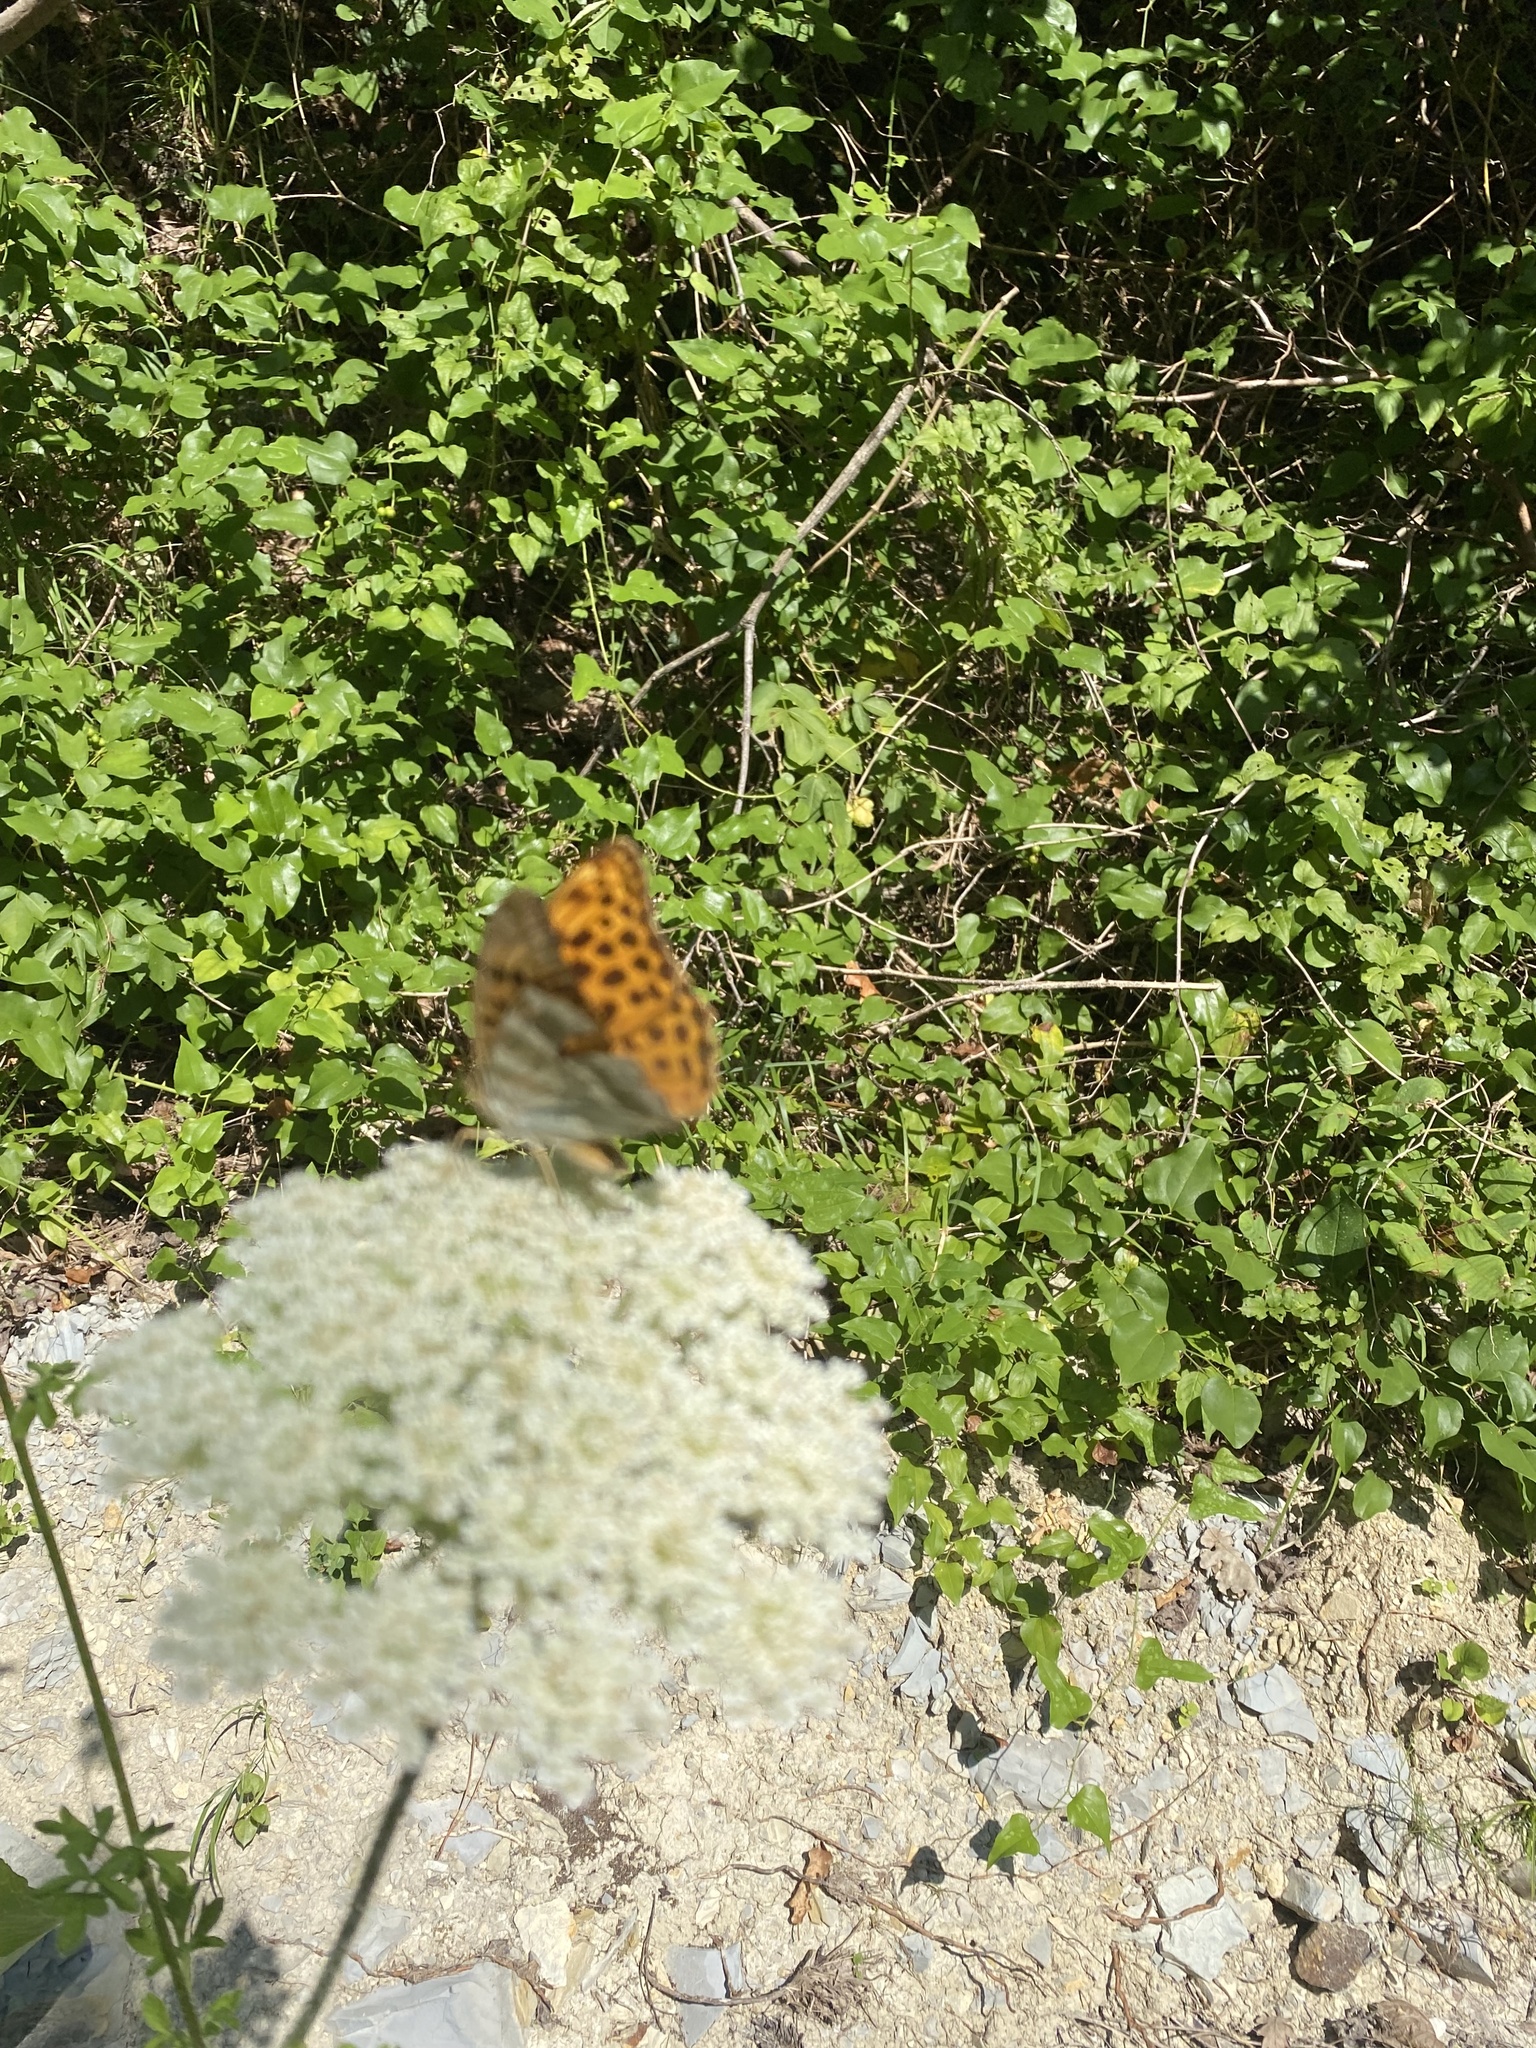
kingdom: Animalia
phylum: Arthropoda
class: Insecta
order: Lepidoptera
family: Nymphalidae
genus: Argynnis
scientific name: Argynnis paphia
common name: Silver-washed fritillary
